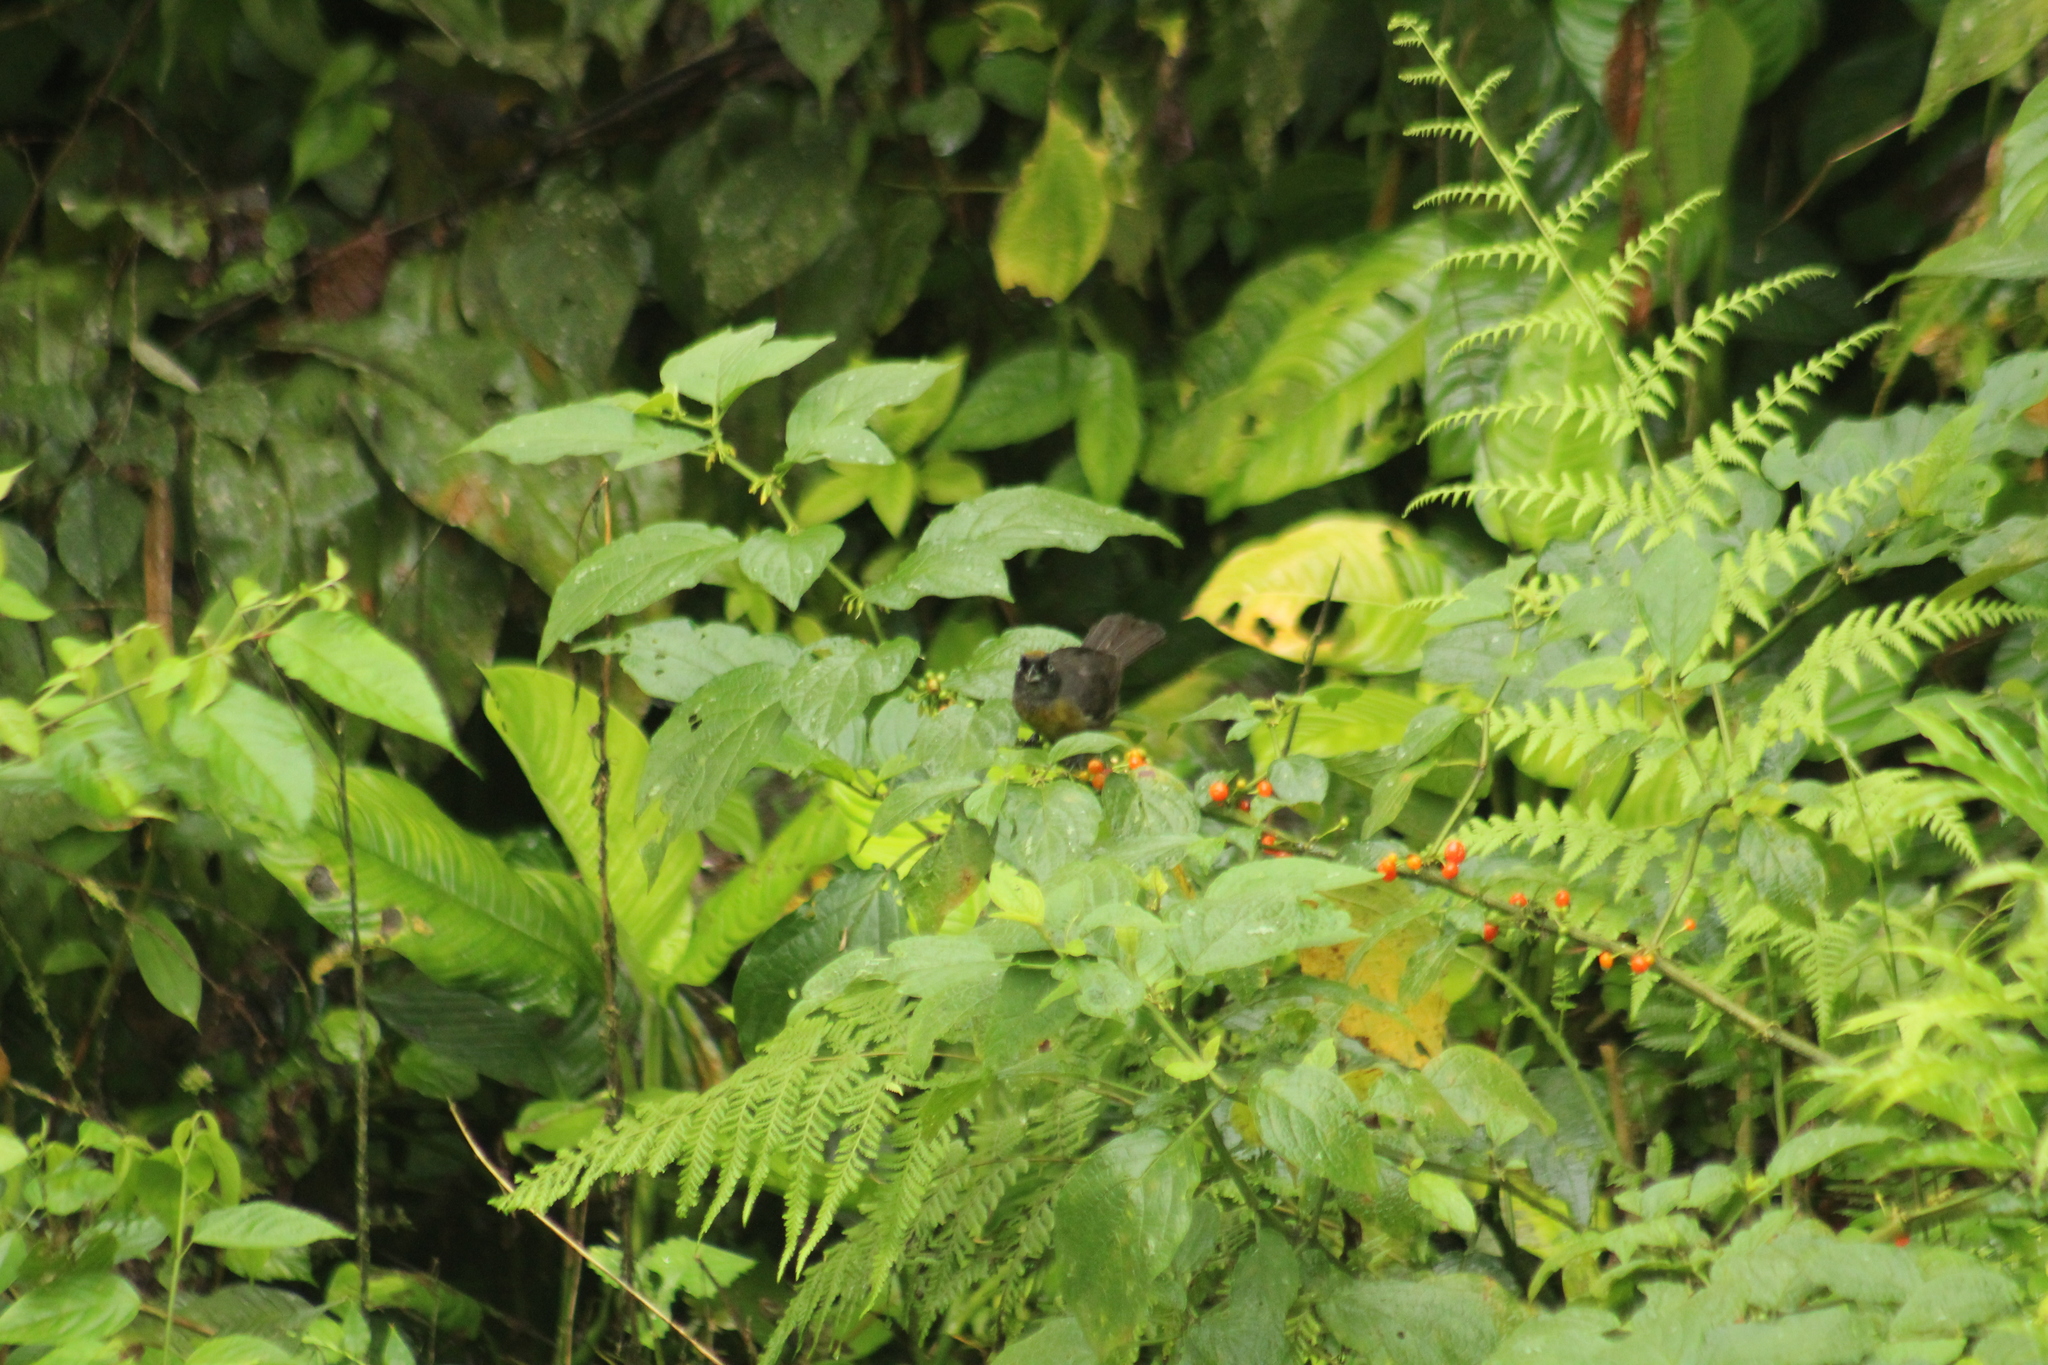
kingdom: Animalia
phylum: Chordata
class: Aves
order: Passeriformes
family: Mitrospingidae
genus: Mitrospingus
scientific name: Mitrospingus cassinii
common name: Dusky-faced tanager
